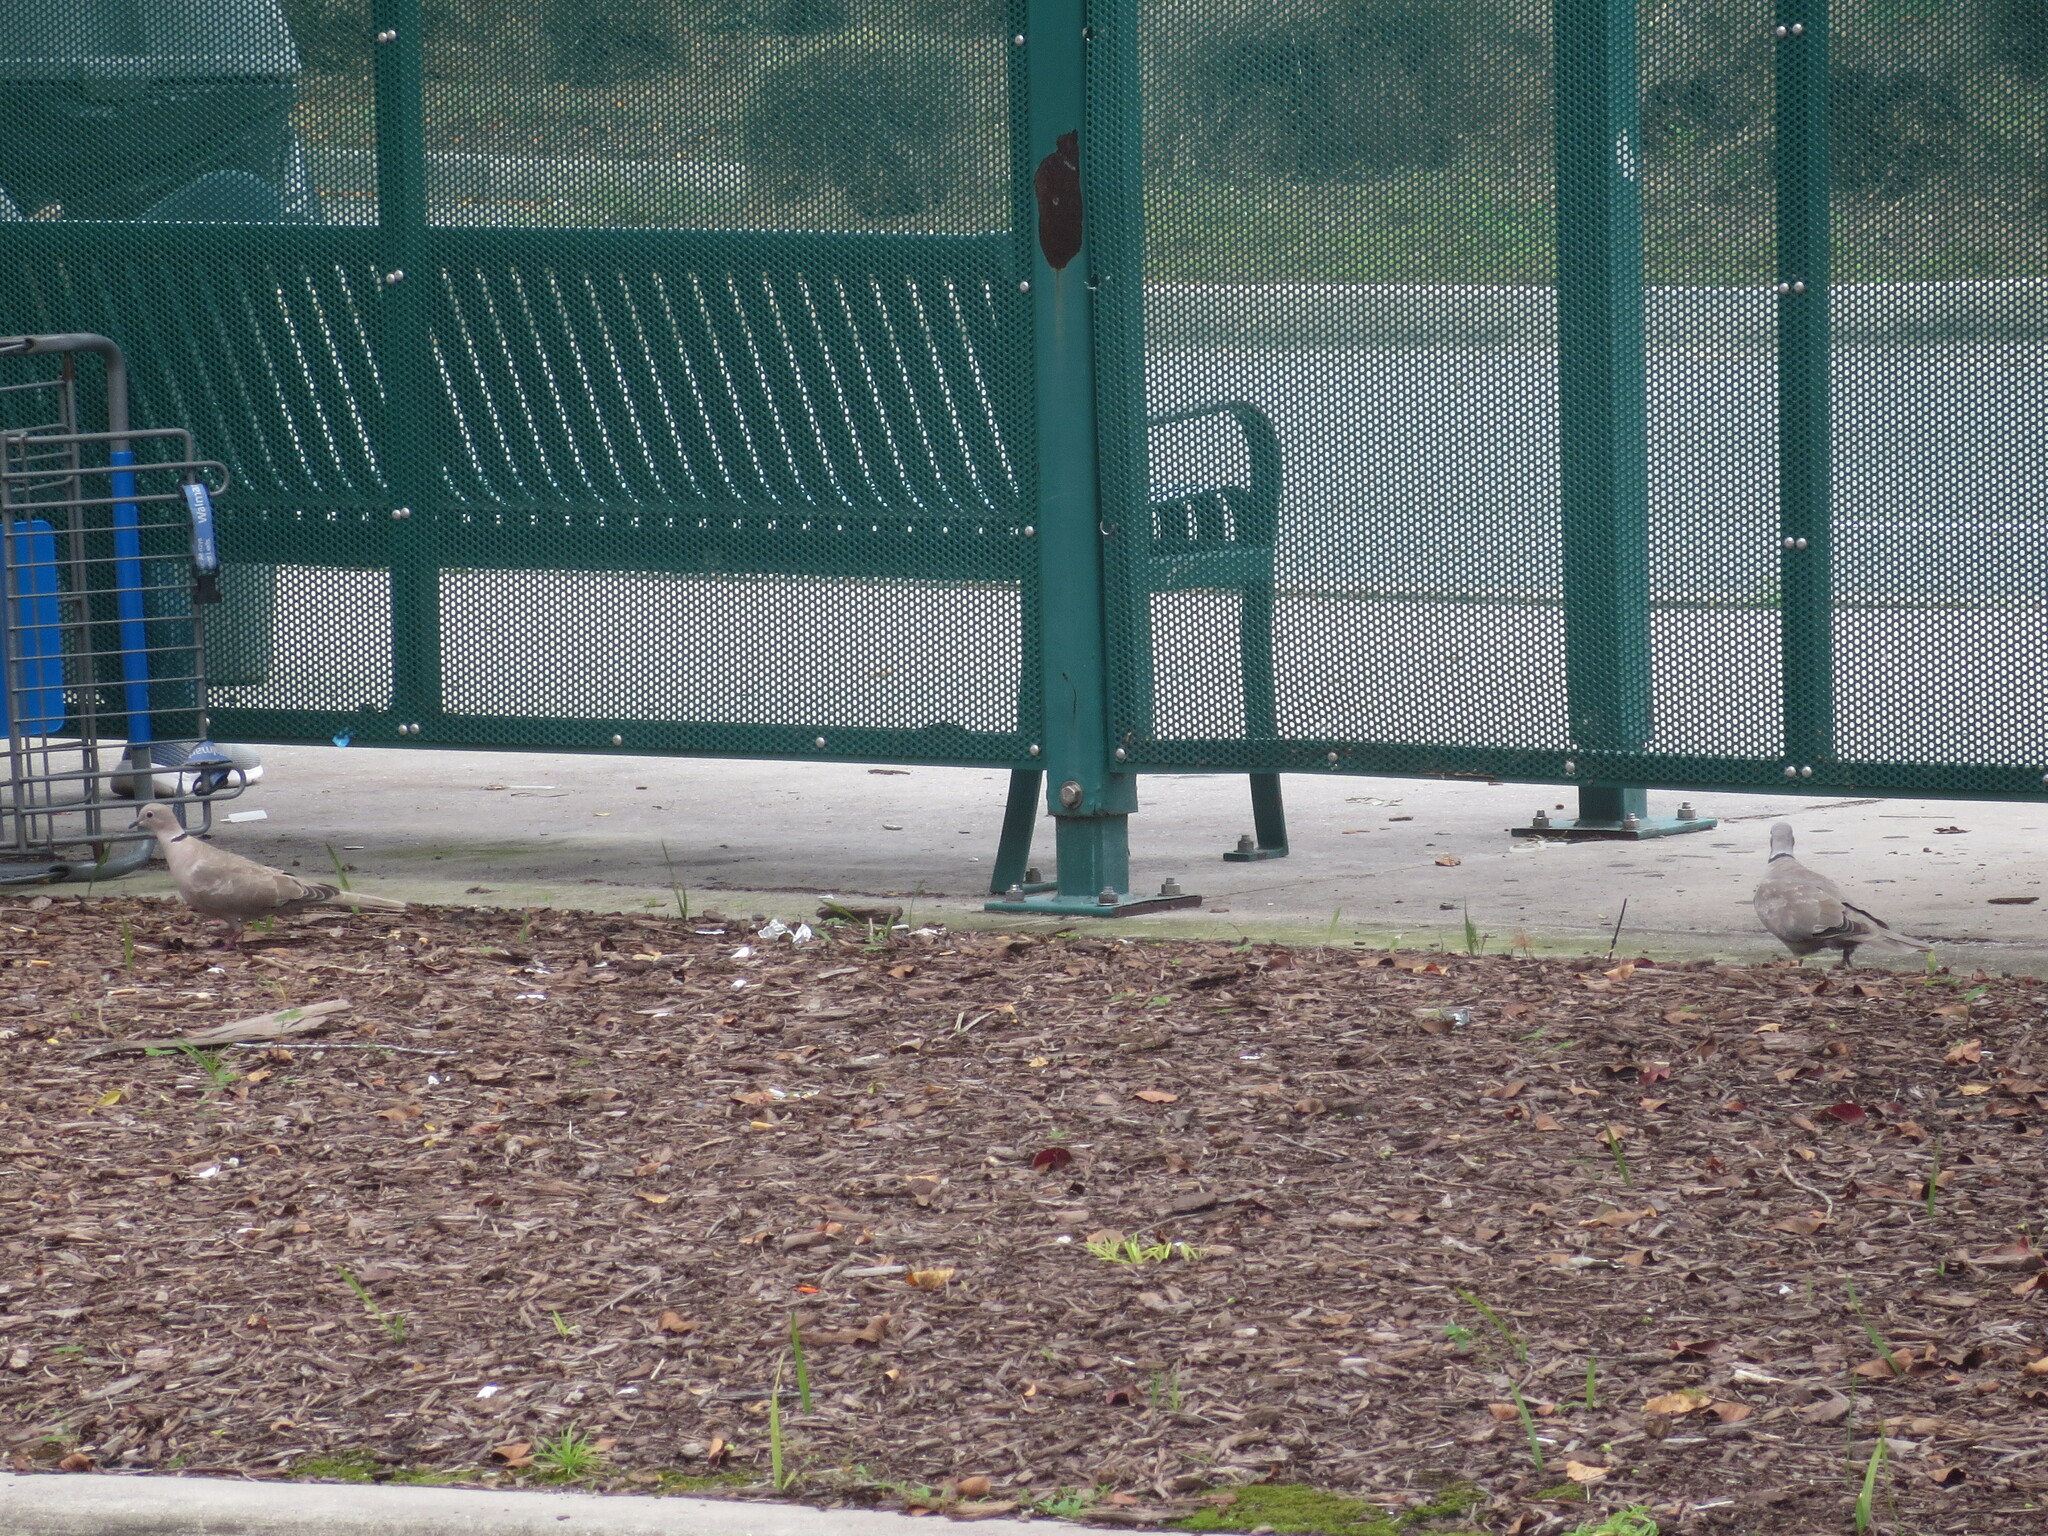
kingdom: Animalia
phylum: Chordata
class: Aves
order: Columbiformes
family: Columbidae
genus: Streptopelia
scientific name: Streptopelia decaocto
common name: Eurasian collared dove
